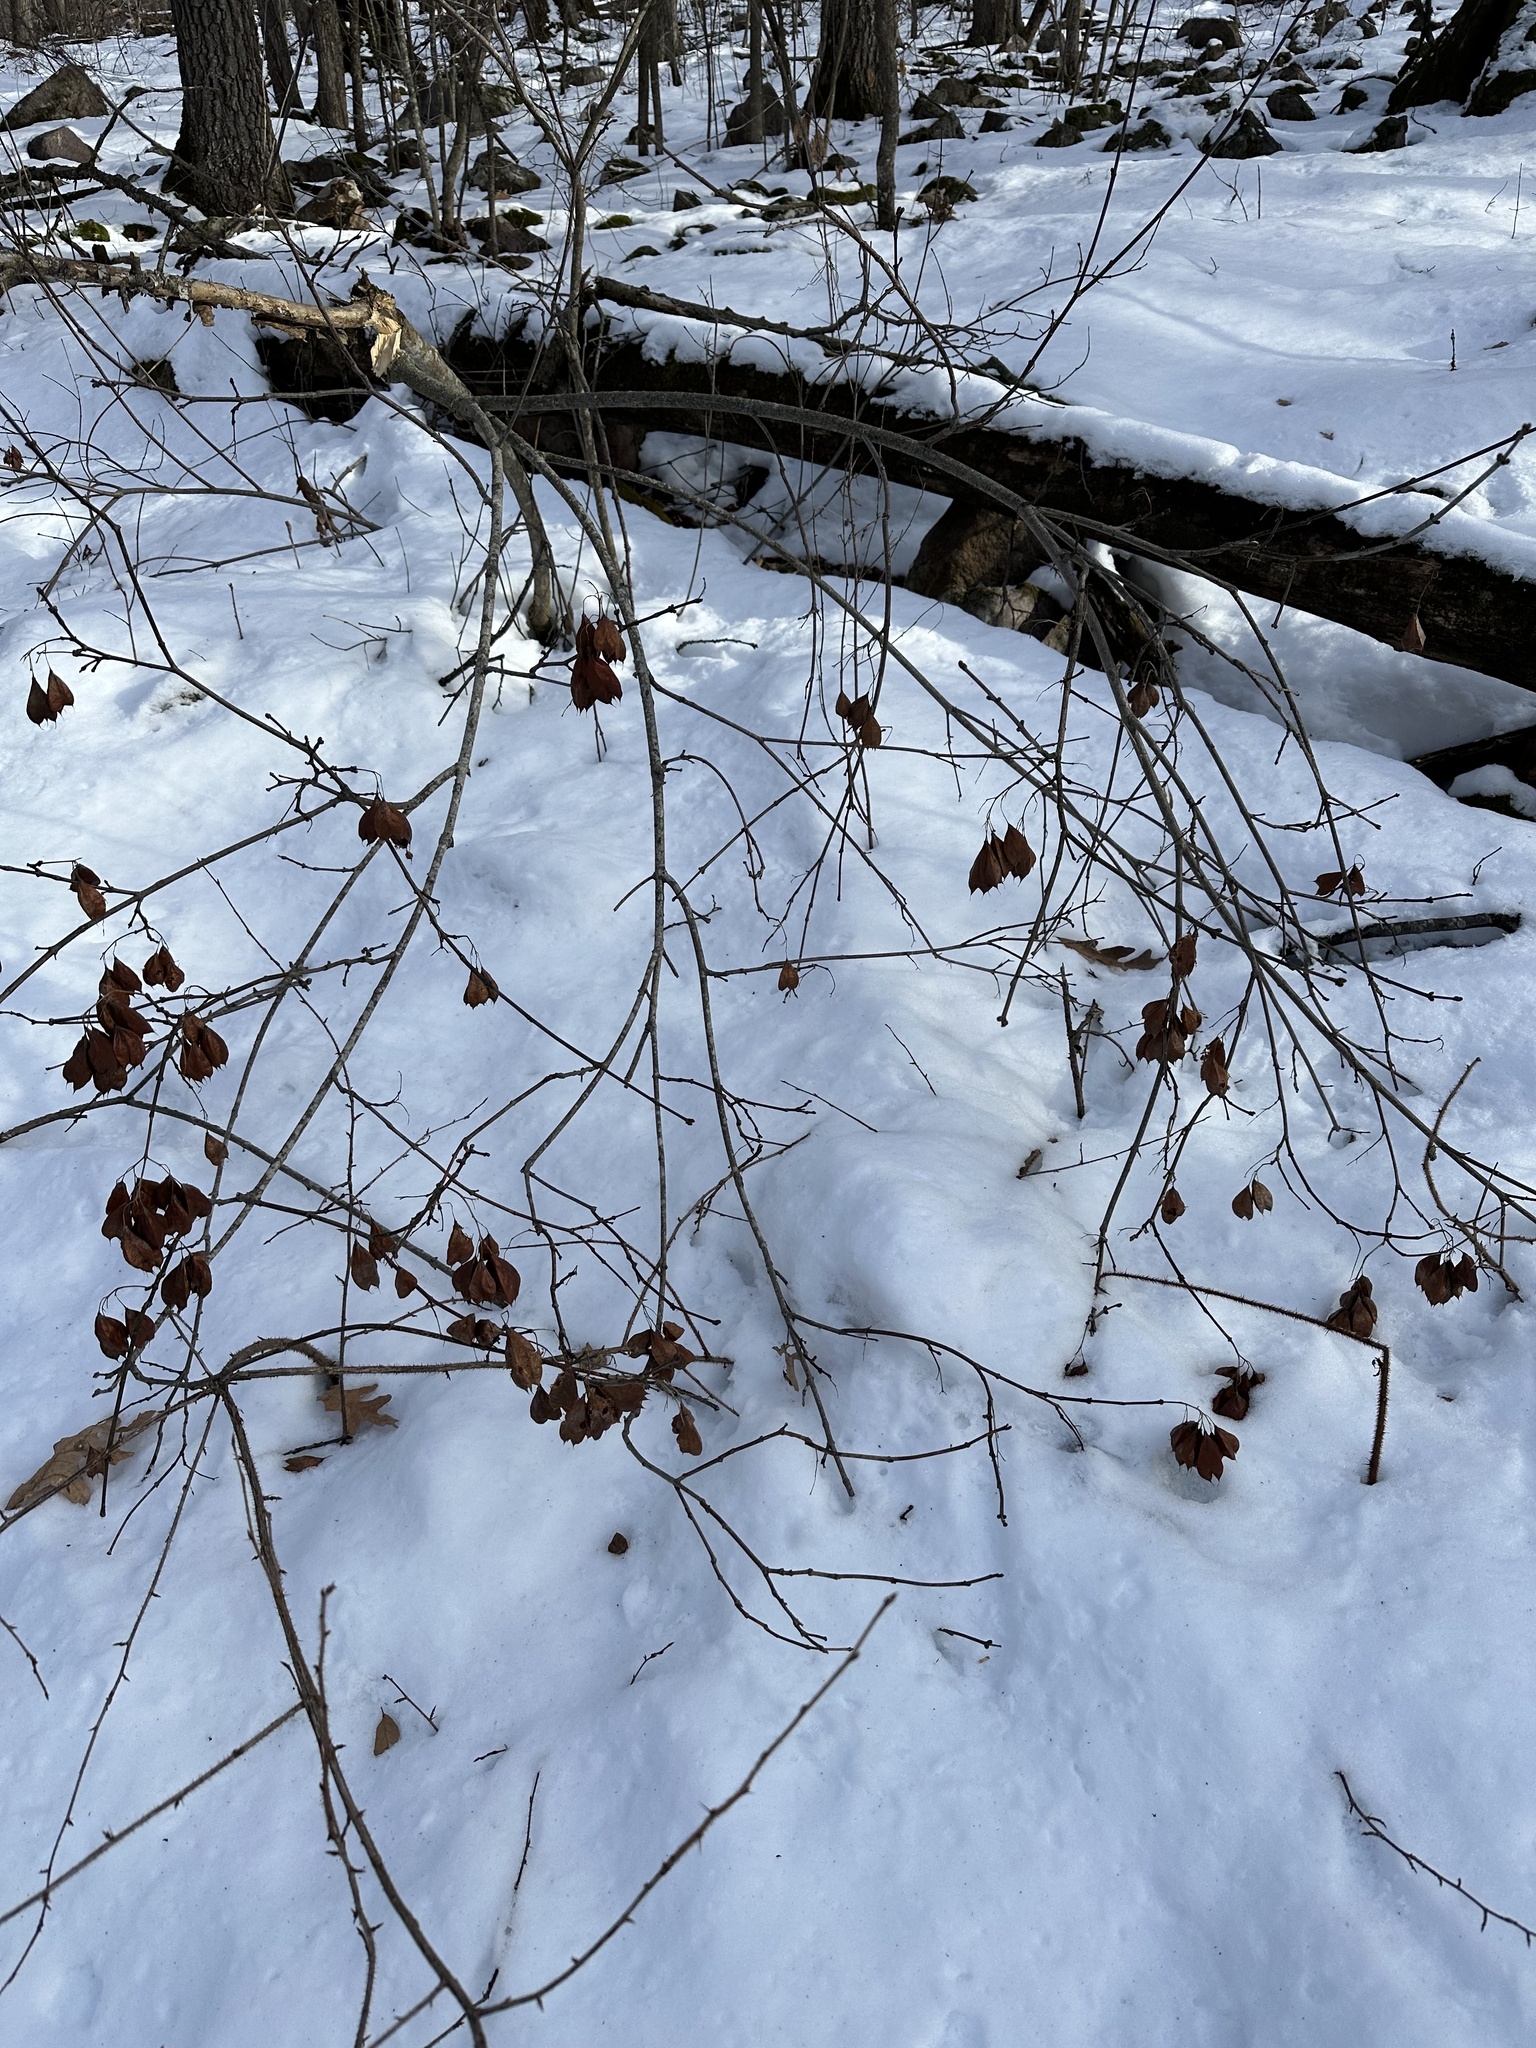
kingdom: Plantae
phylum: Tracheophyta
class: Magnoliopsida
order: Crossosomatales
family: Staphyleaceae
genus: Staphylea
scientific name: Staphylea trifolia
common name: American bladdernut
